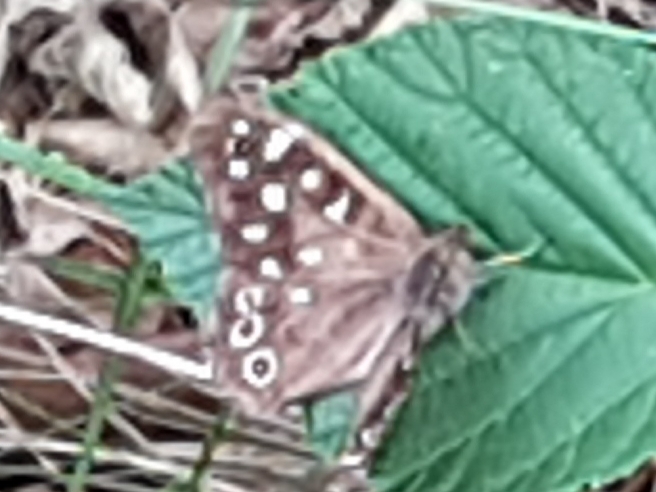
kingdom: Animalia
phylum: Arthropoda
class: Insecta
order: Lepidoptera
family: Nymphalidae
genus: Pararge
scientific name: Pararge aegeria
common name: Speckled wood
